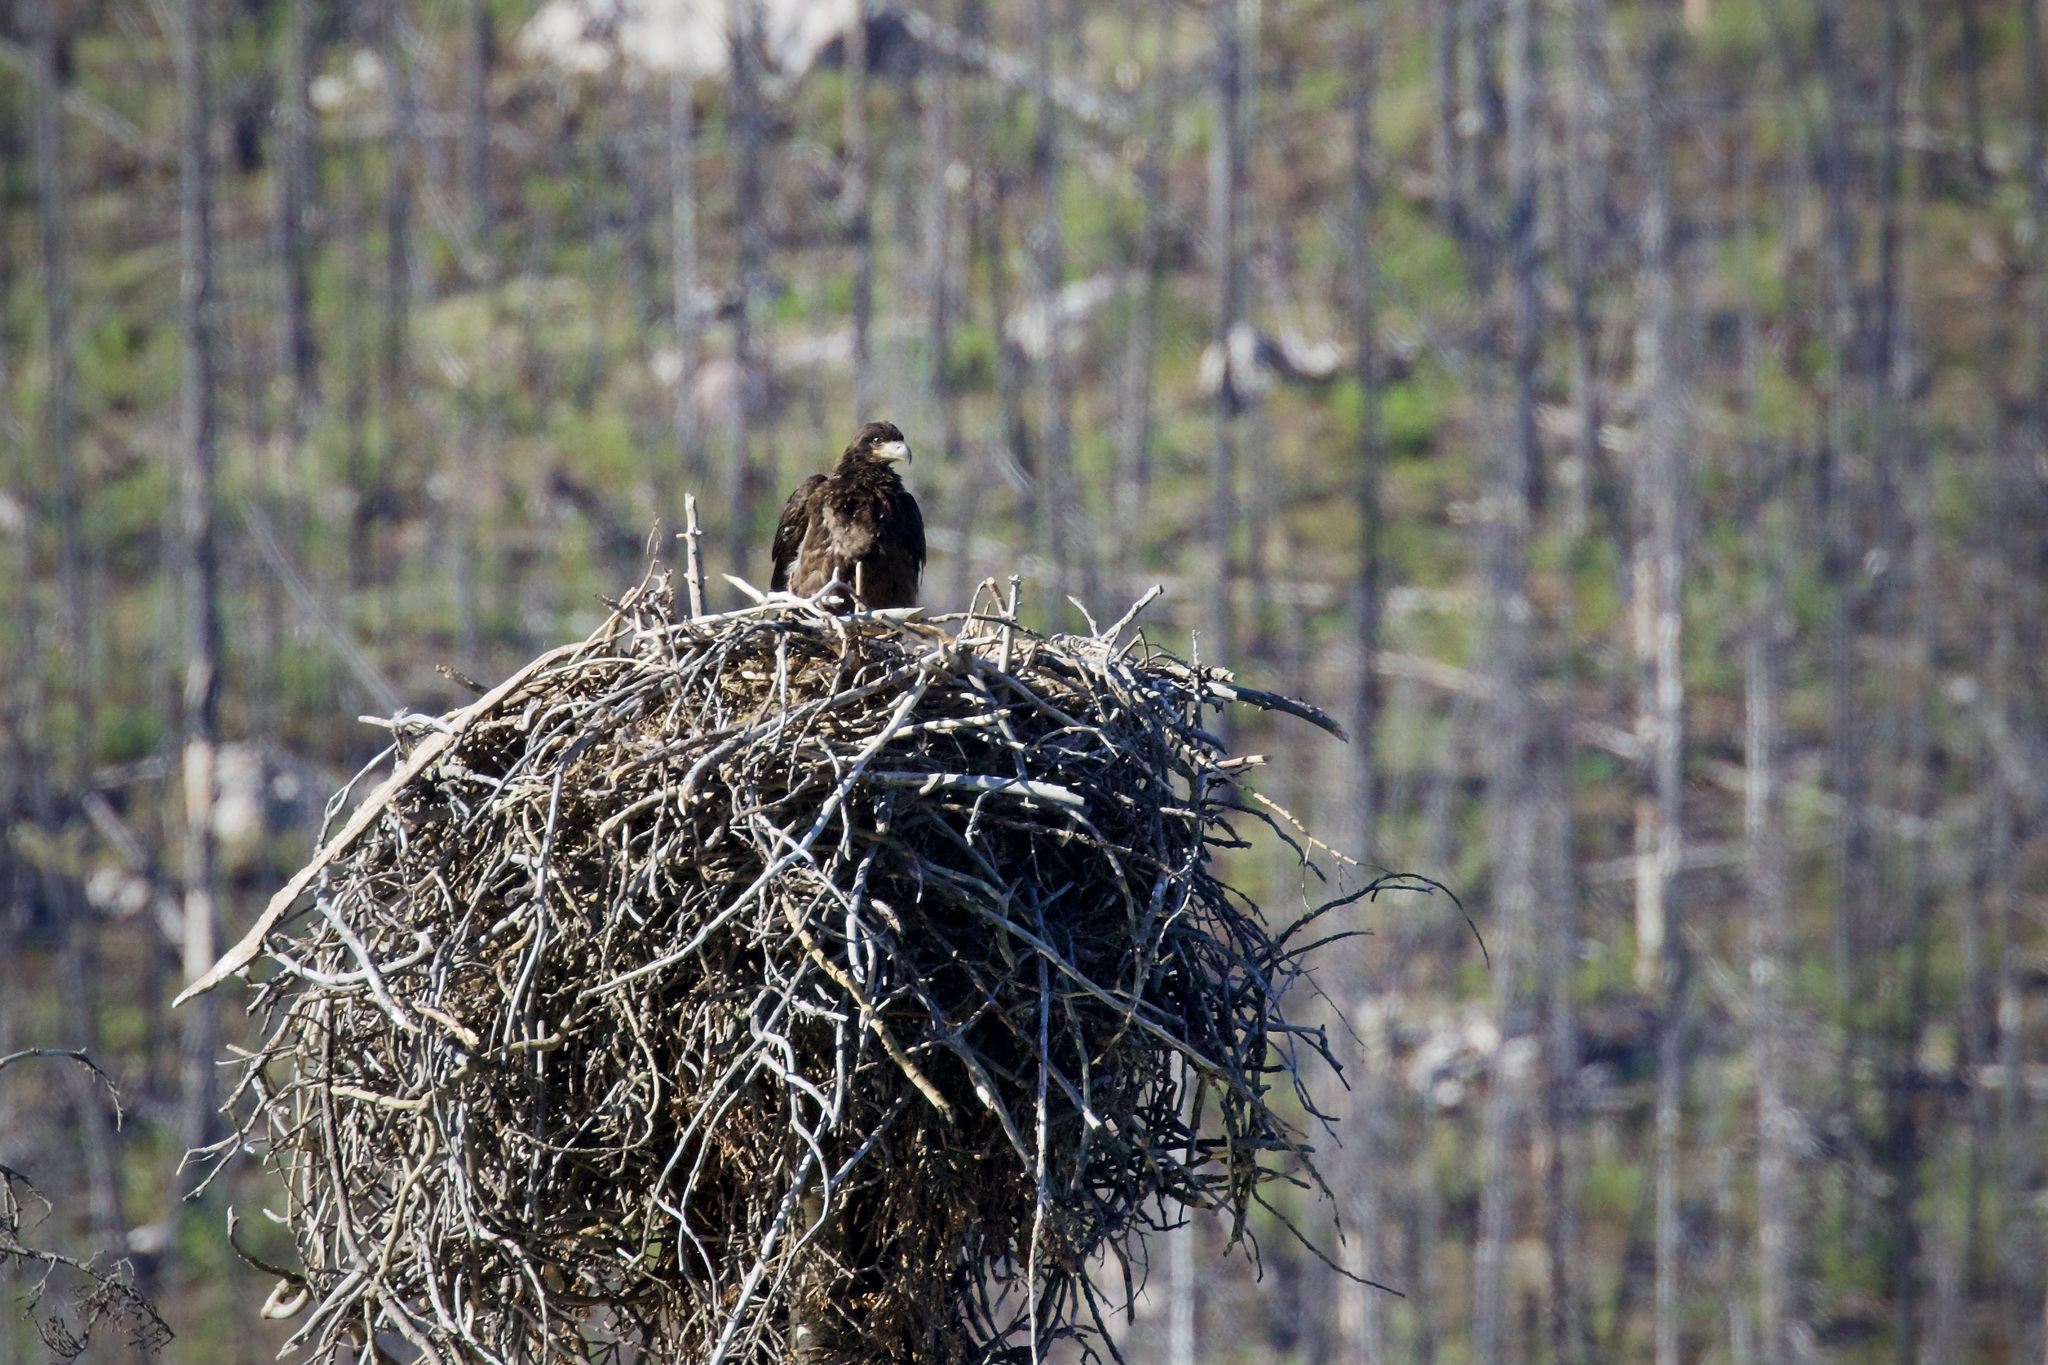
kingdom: Animalia
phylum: Chordata
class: Aves
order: Accipitriformes
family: Accipitridae
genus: Haliaeetus
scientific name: Haliaeetus leucocephalus
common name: Bald eagle
